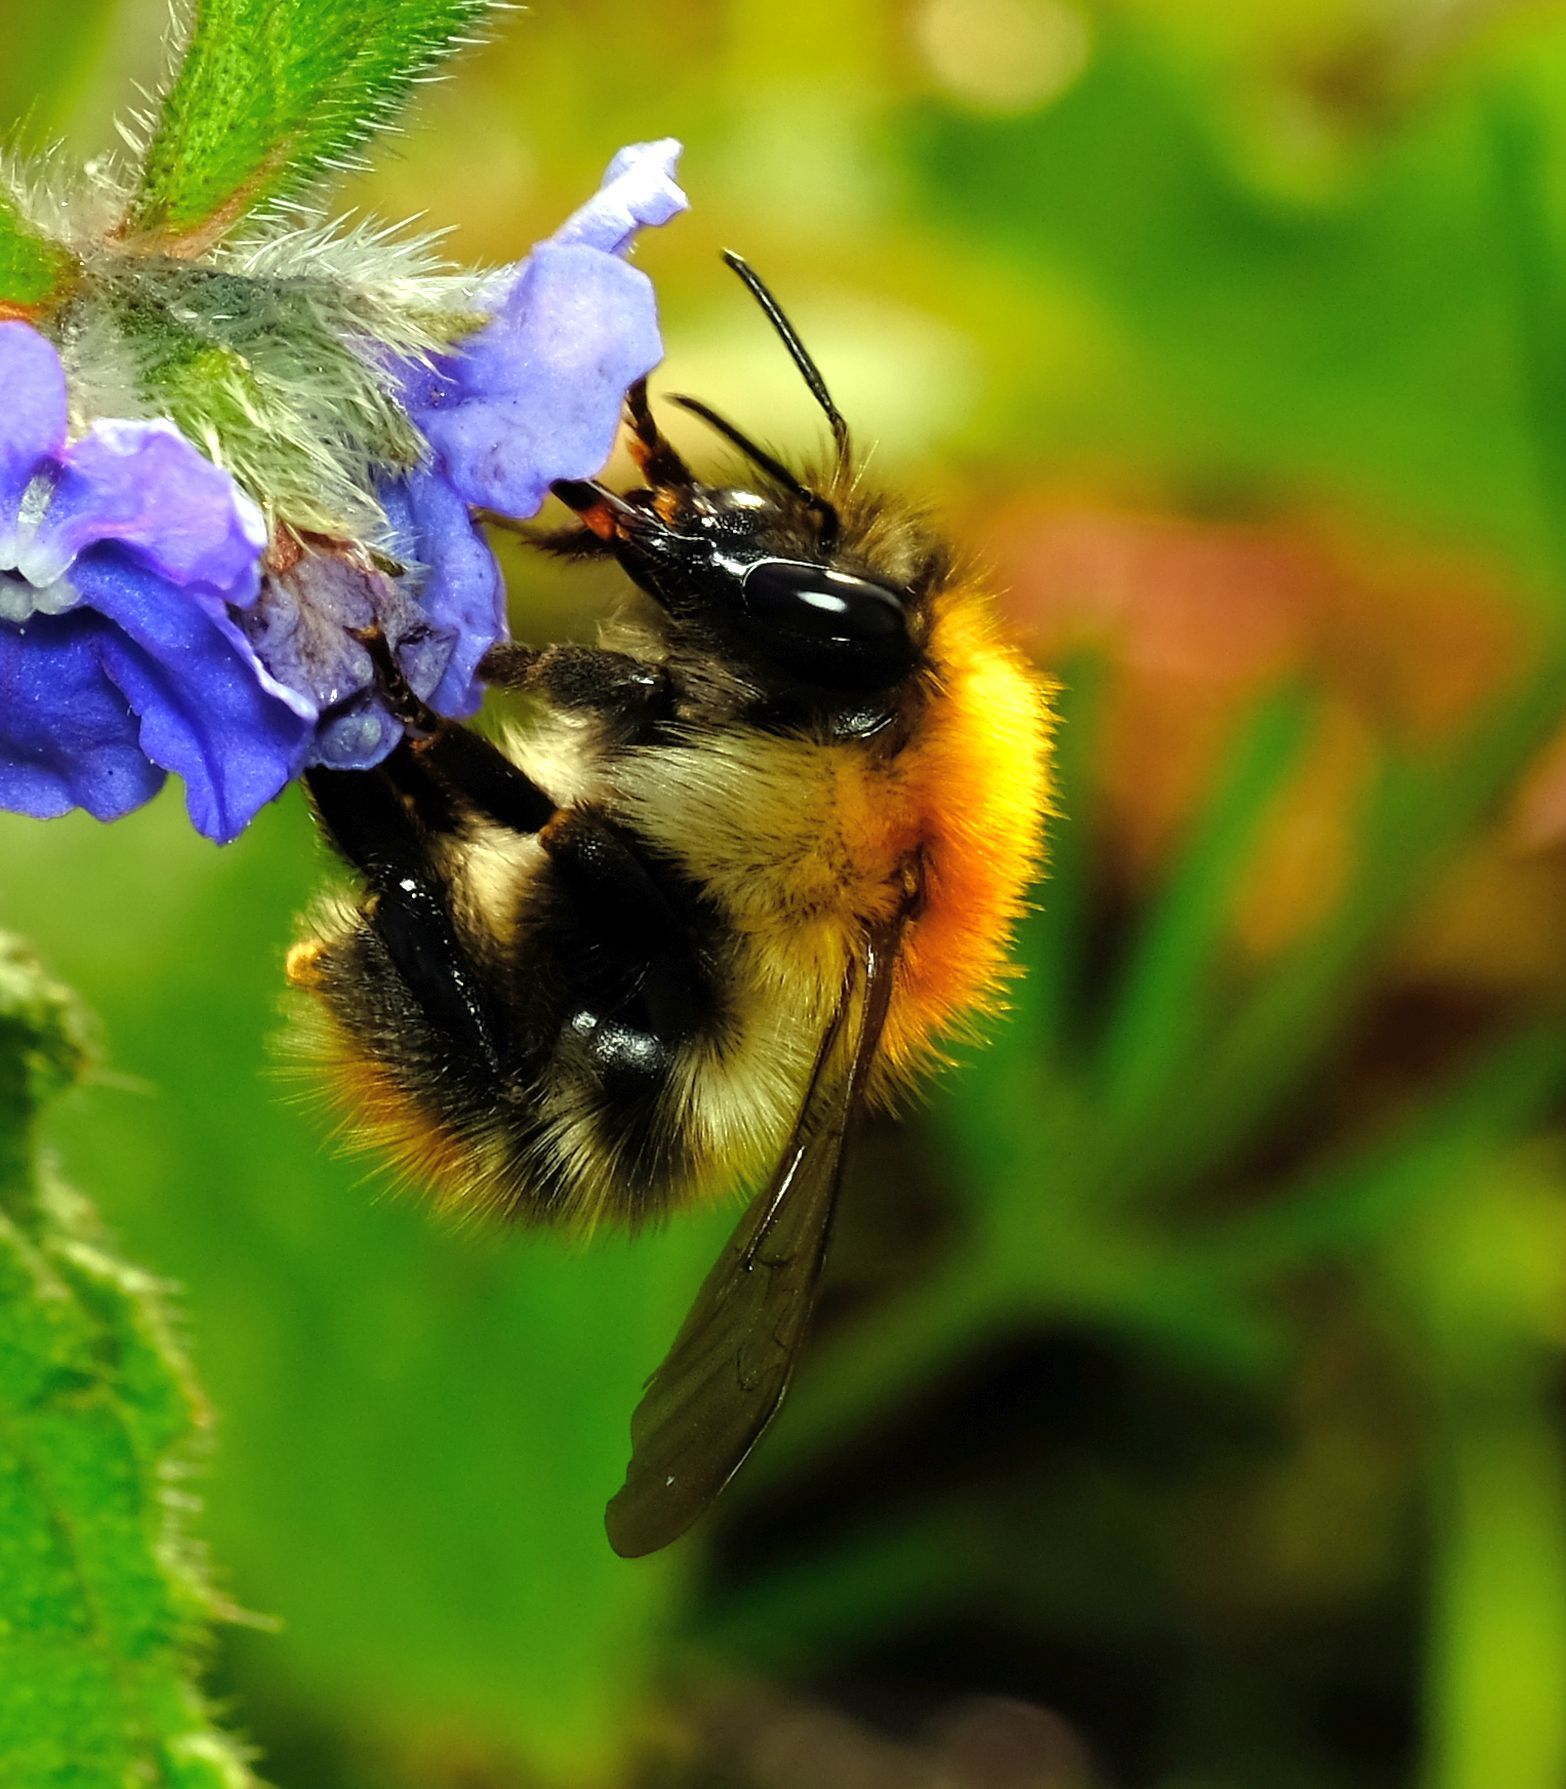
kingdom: Animalia
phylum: Arthropoda
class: Insecta
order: Hymenoptera
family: Apidae
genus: Bombus
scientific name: Bombus pascuorum
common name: Common carder bee
